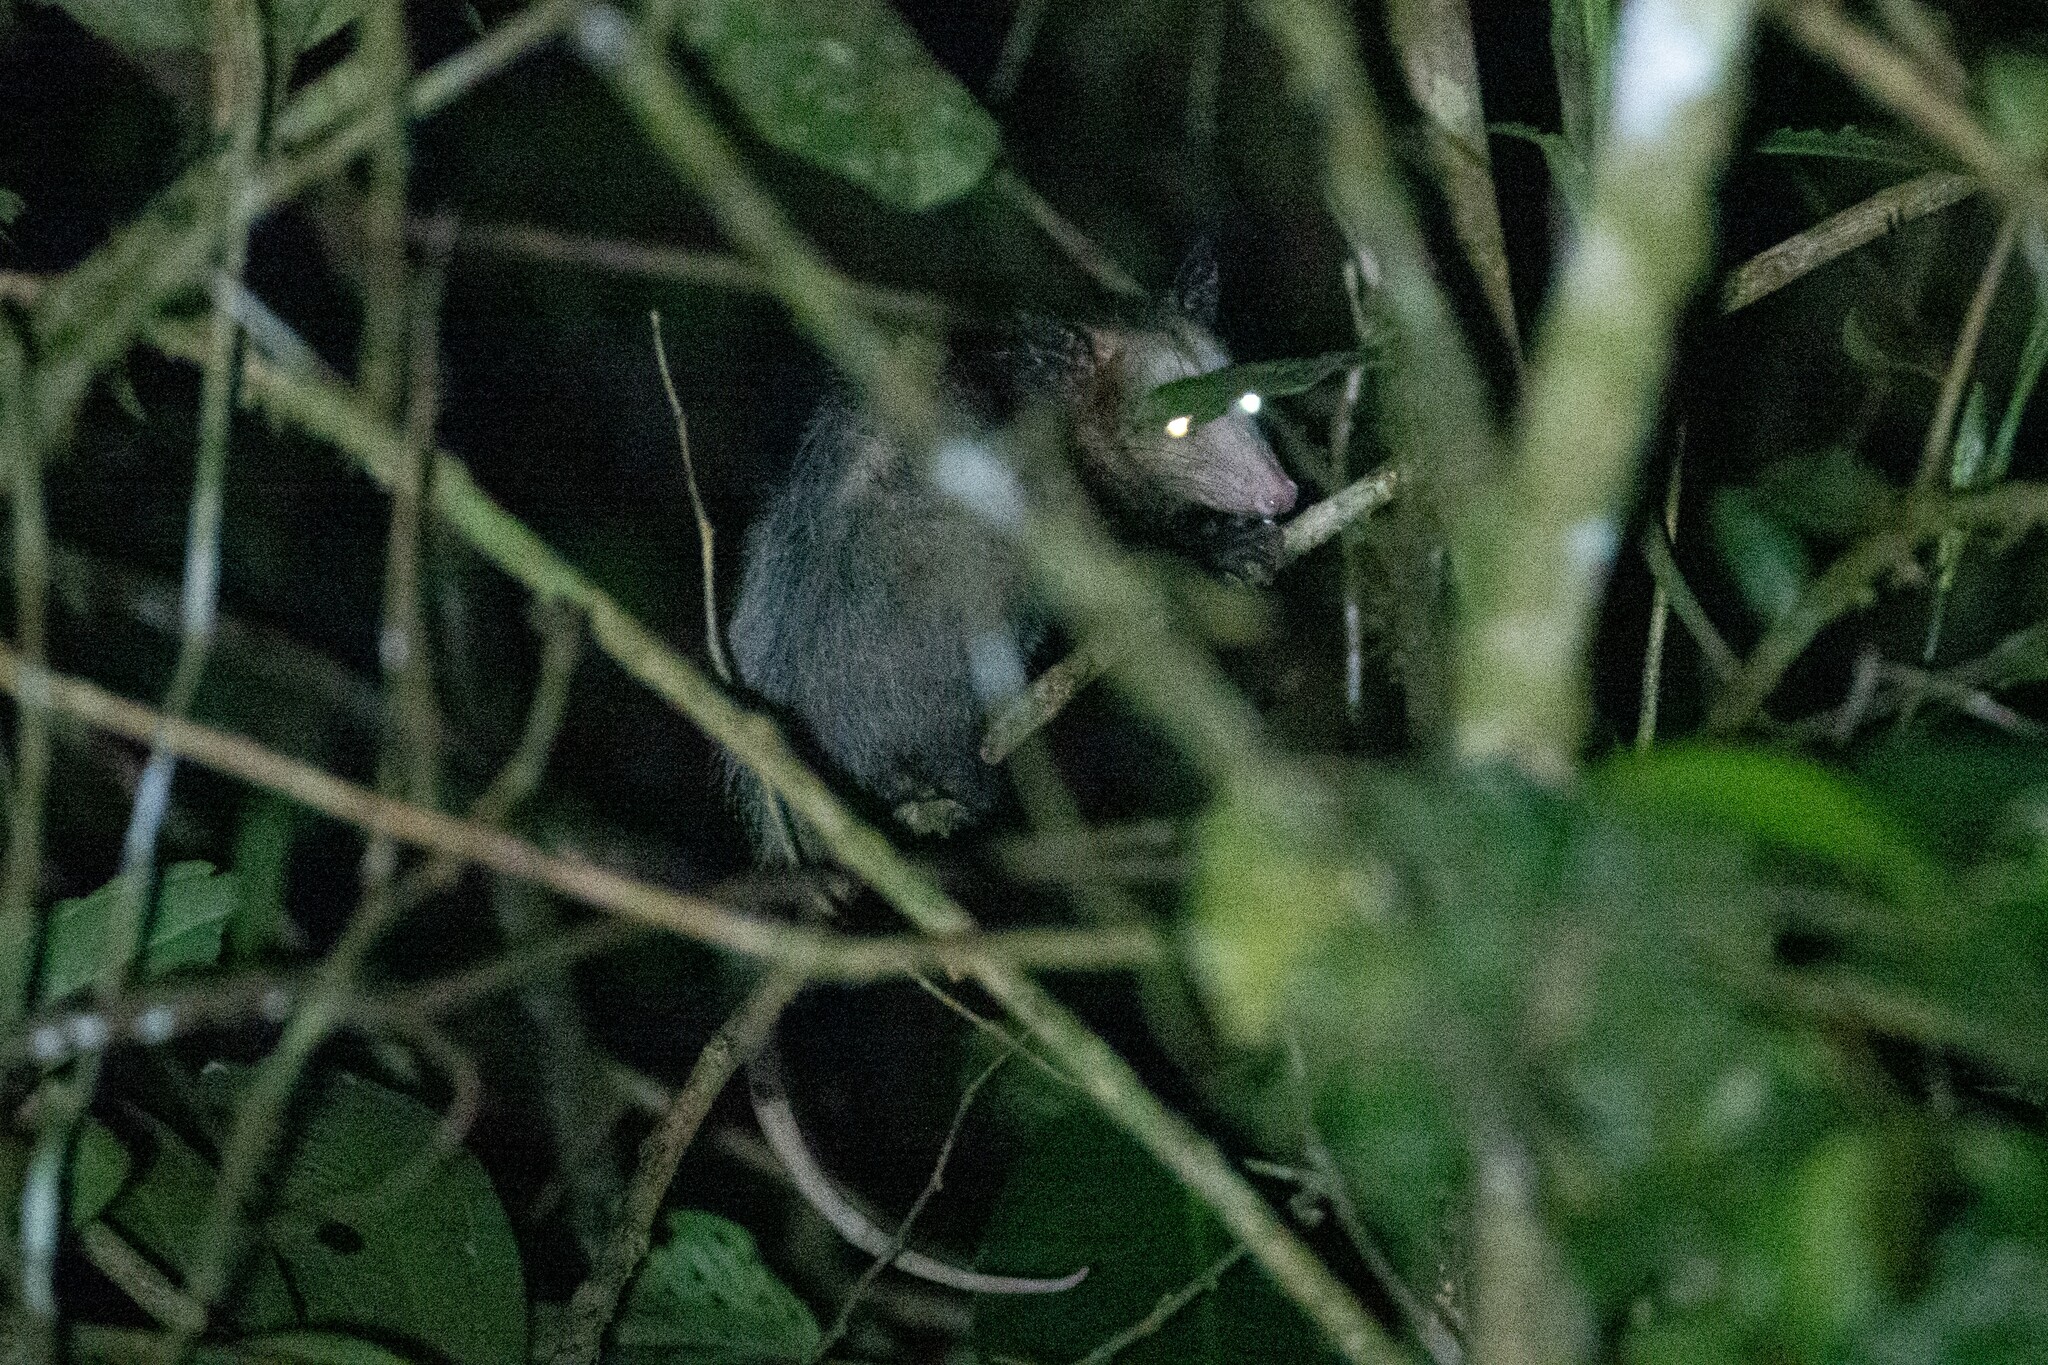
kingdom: Animalia
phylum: Chordata
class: Mammalia
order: Didelphimorphia
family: Didelphidae
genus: Didelphis
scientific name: Didelphis marsupialis
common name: Common opossum
